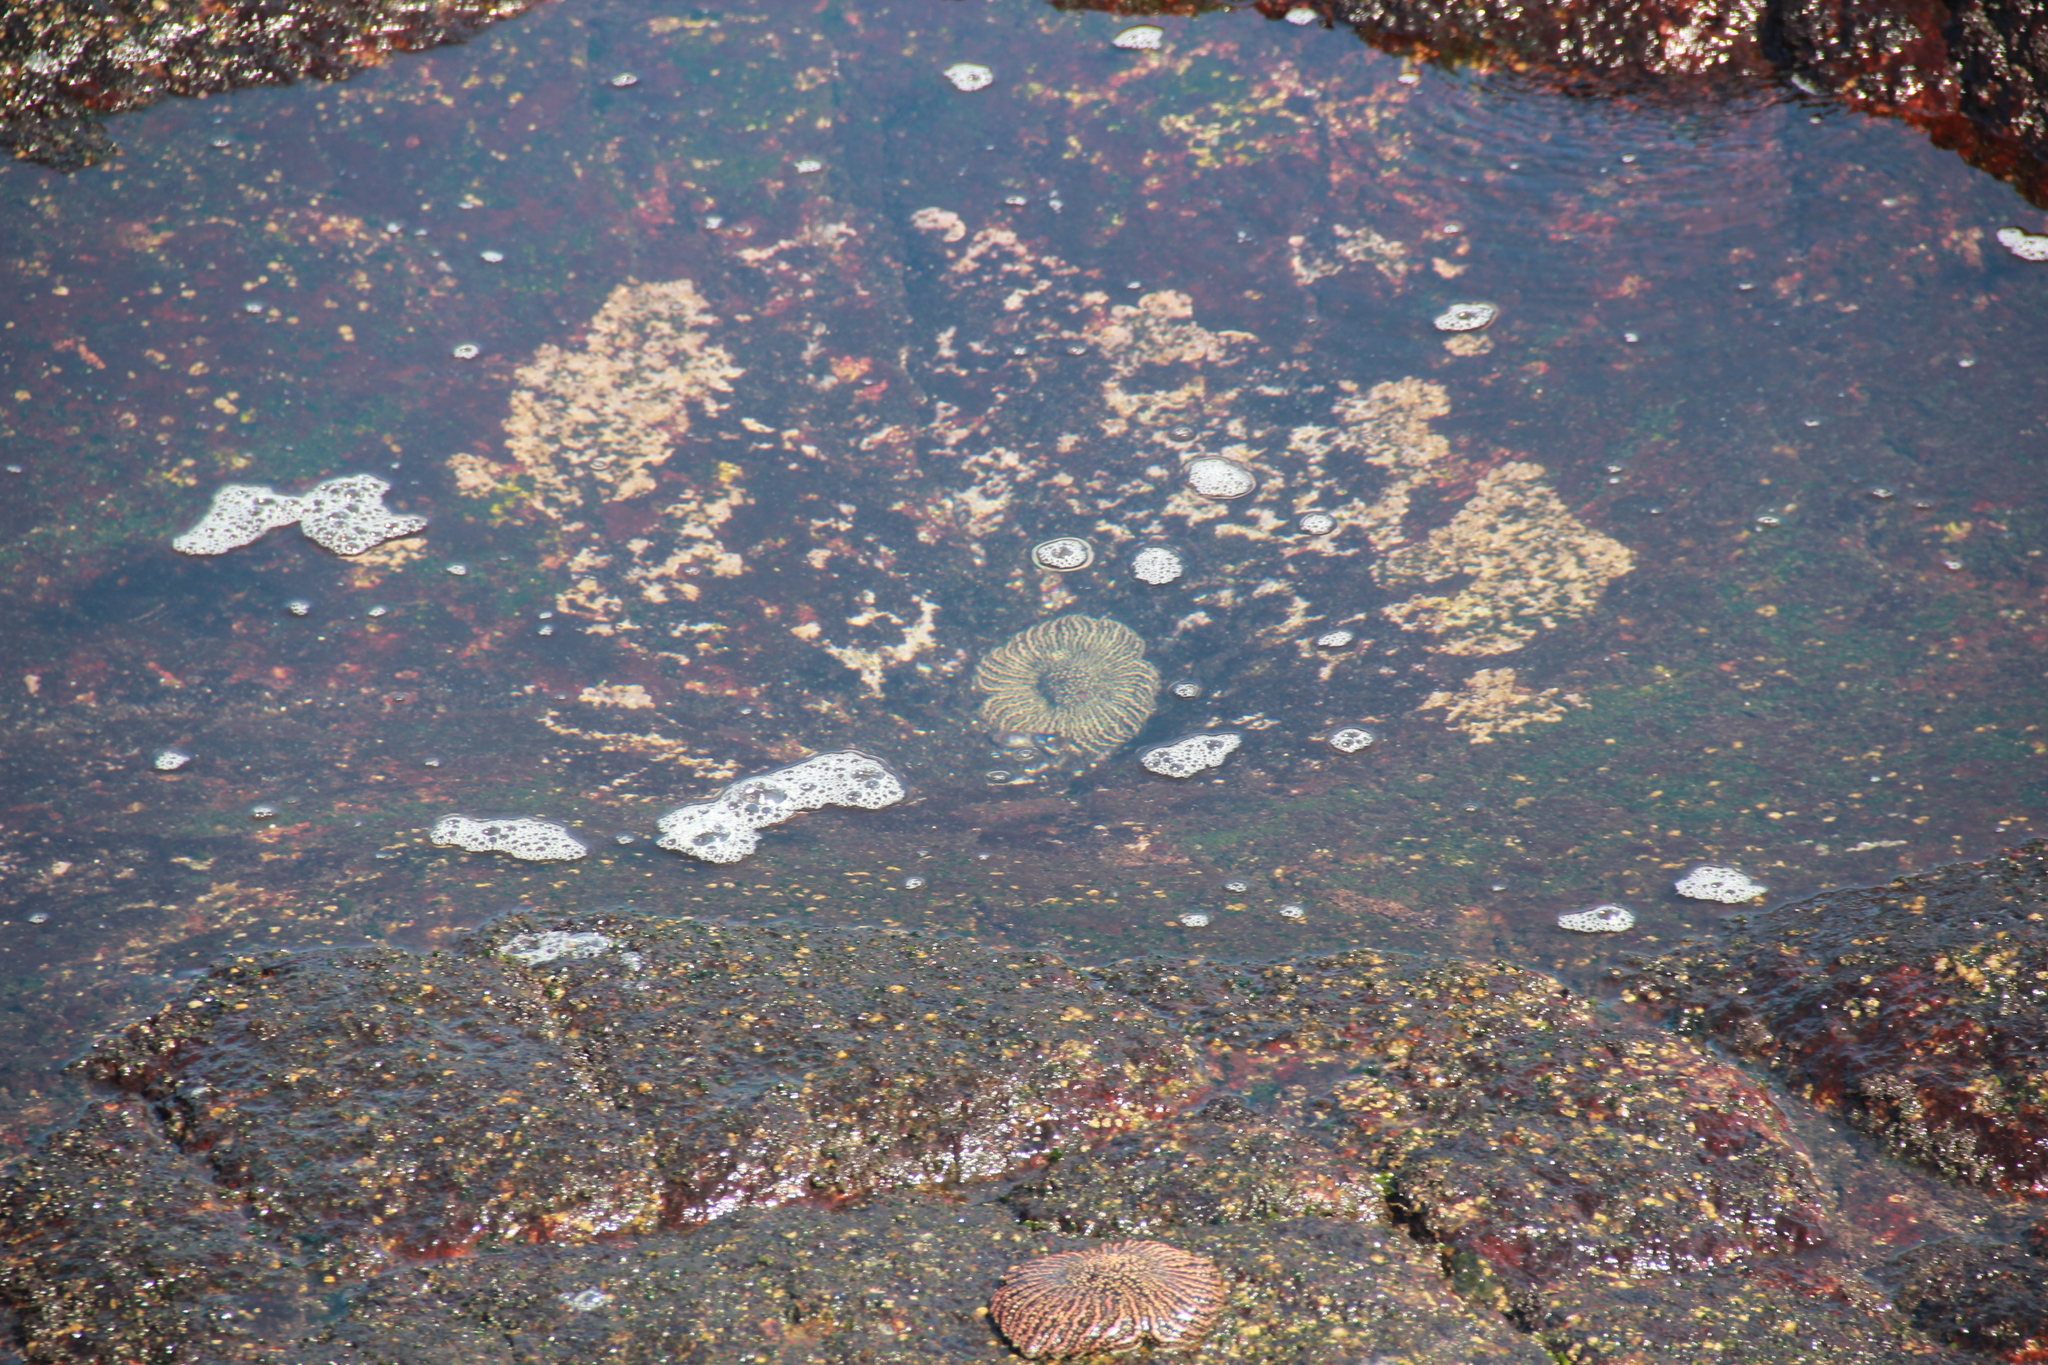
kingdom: Animalia
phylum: Echinodermata
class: Asteroidea
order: Forcipulatida
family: Heliasteridae
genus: Heliaster
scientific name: Heliaster helianthus
